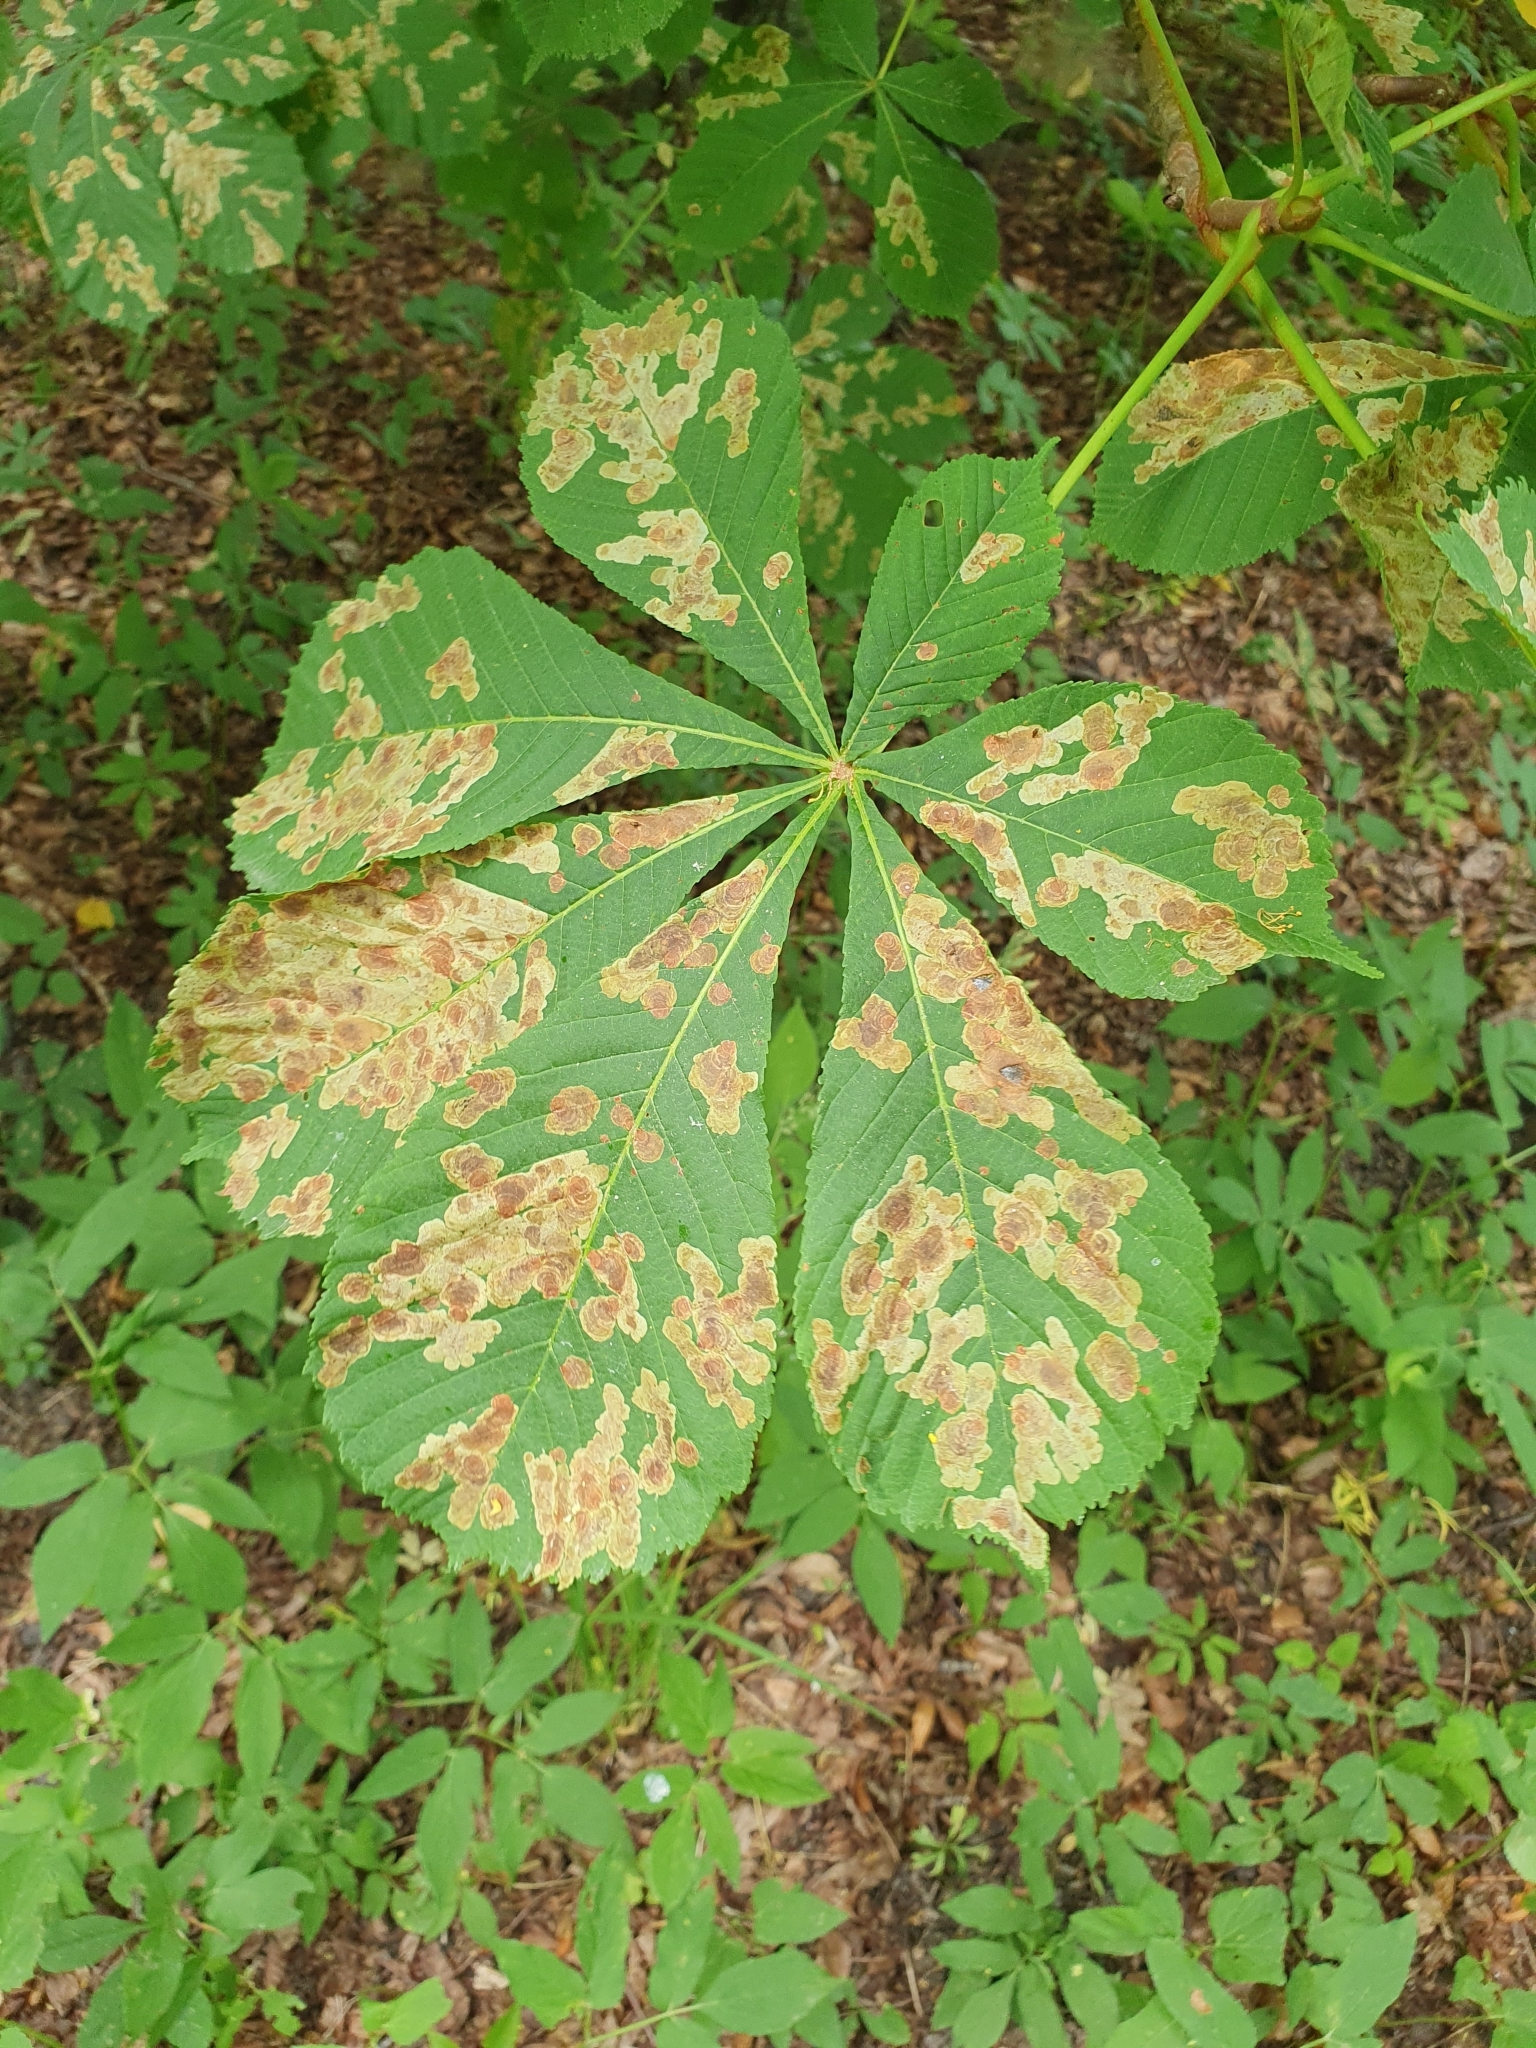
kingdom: Animalia
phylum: Arthropoda
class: Insecta
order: Lepidoptera
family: Gracillariidae
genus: Cameraria
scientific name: Cameraria ohridella
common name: Horse-chestnut leaf-miner
